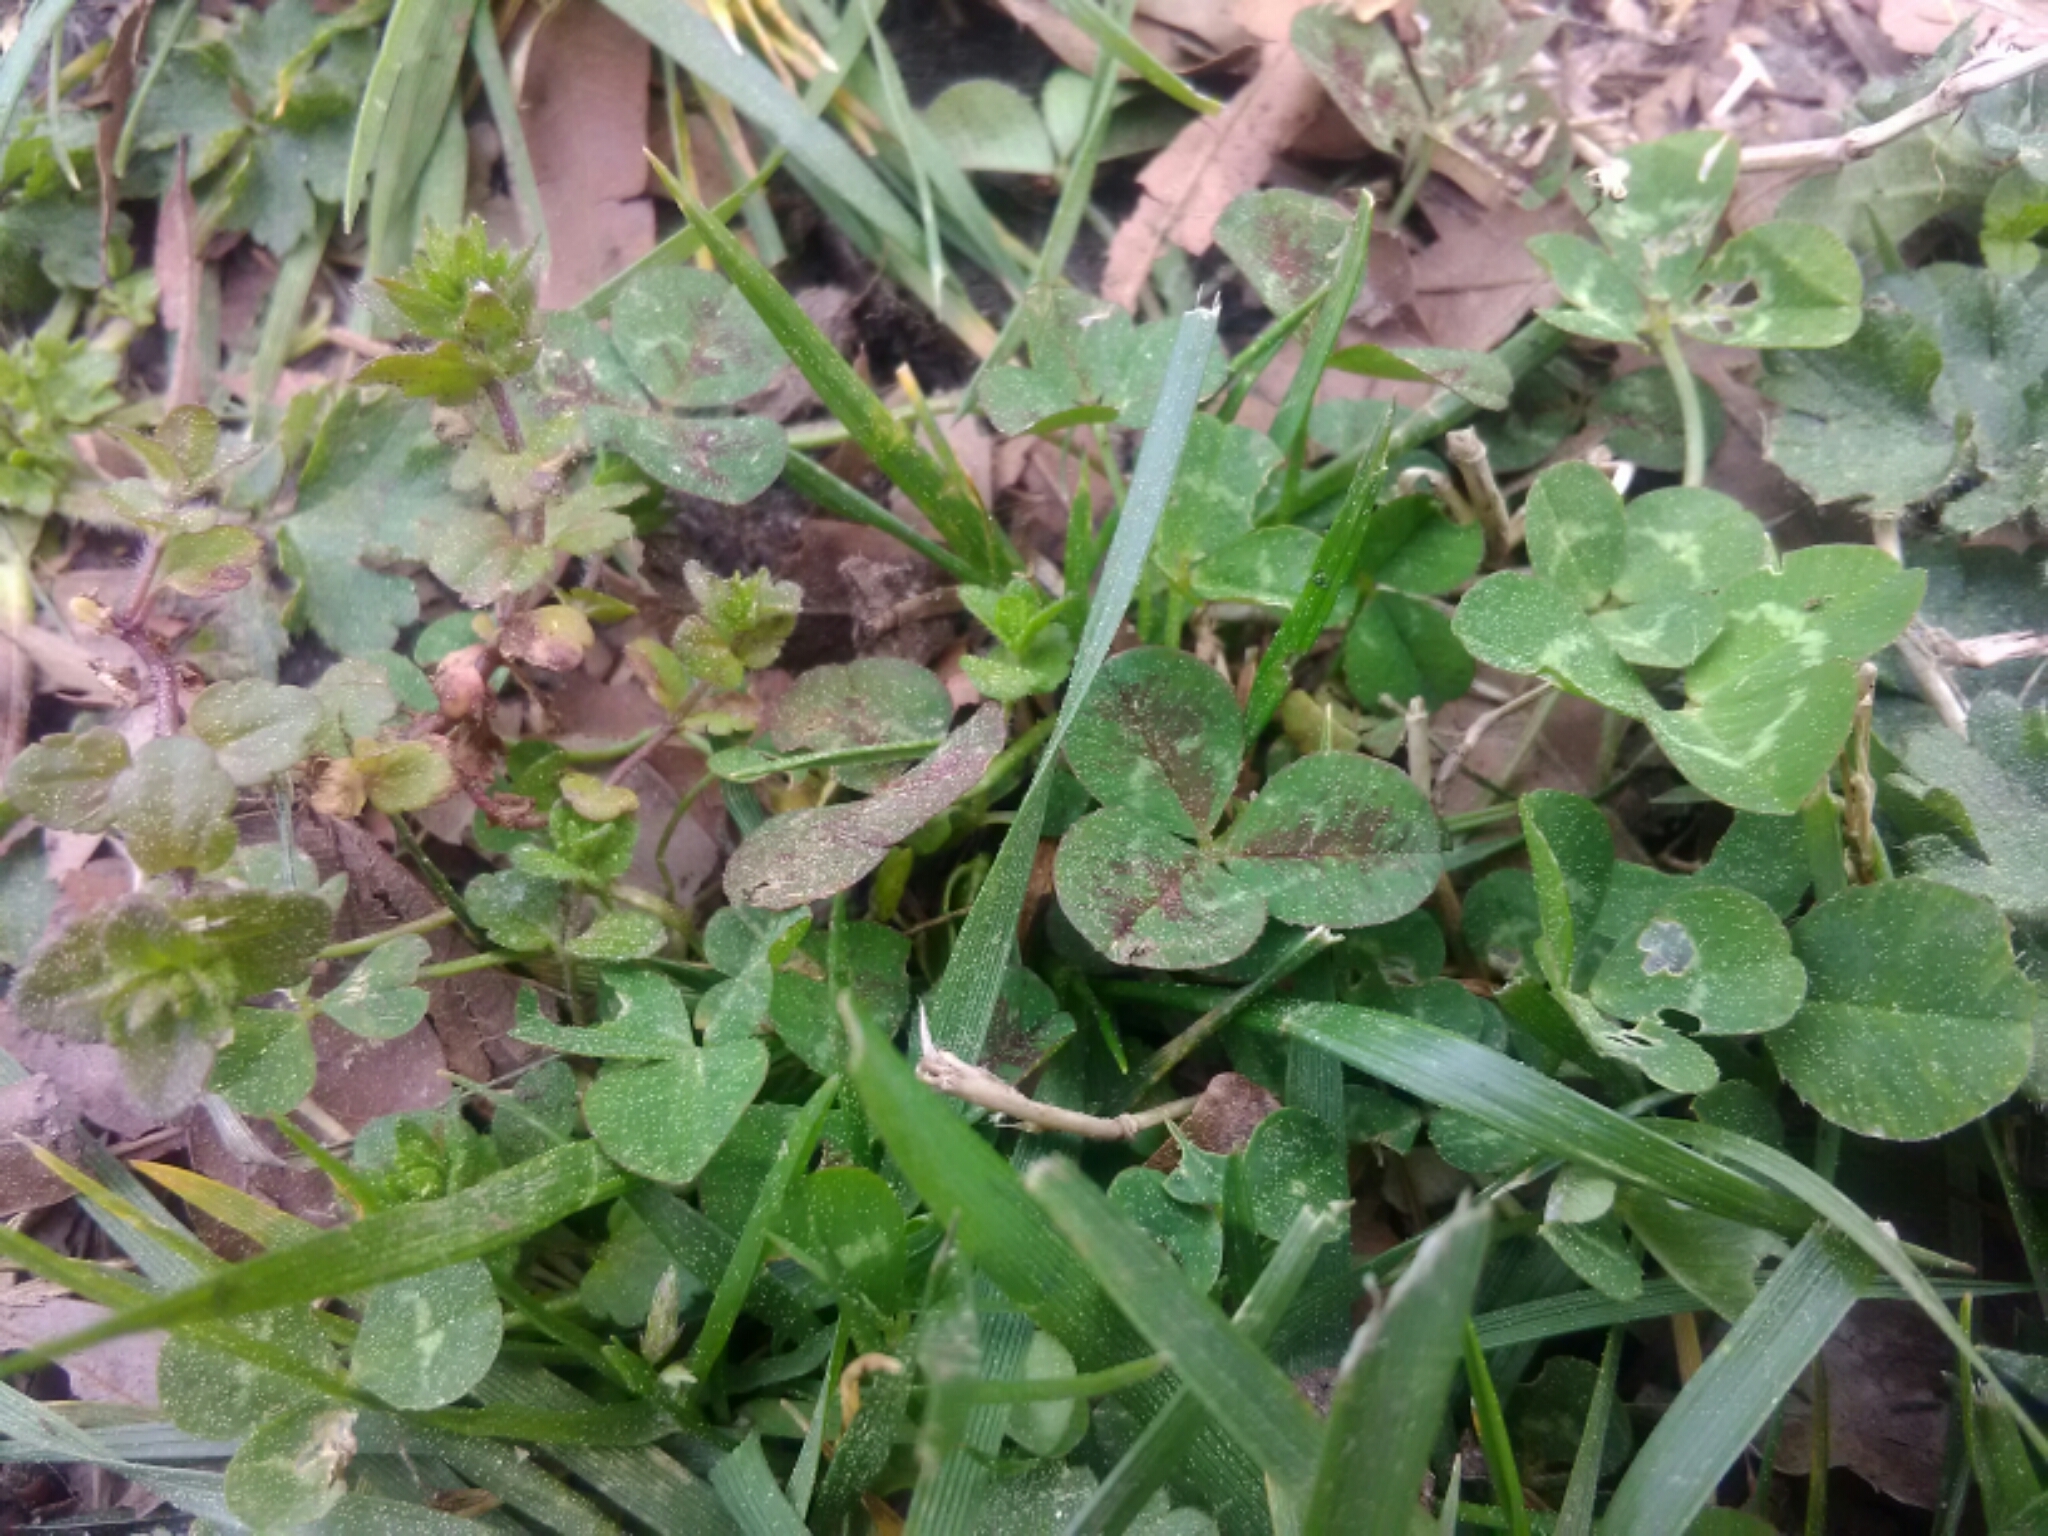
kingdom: Plantae
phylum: Tracheophyta
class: Magnoliopsida
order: Fabales
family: Fabaceae
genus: Trifolium
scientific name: Trifolium repens
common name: White clover
